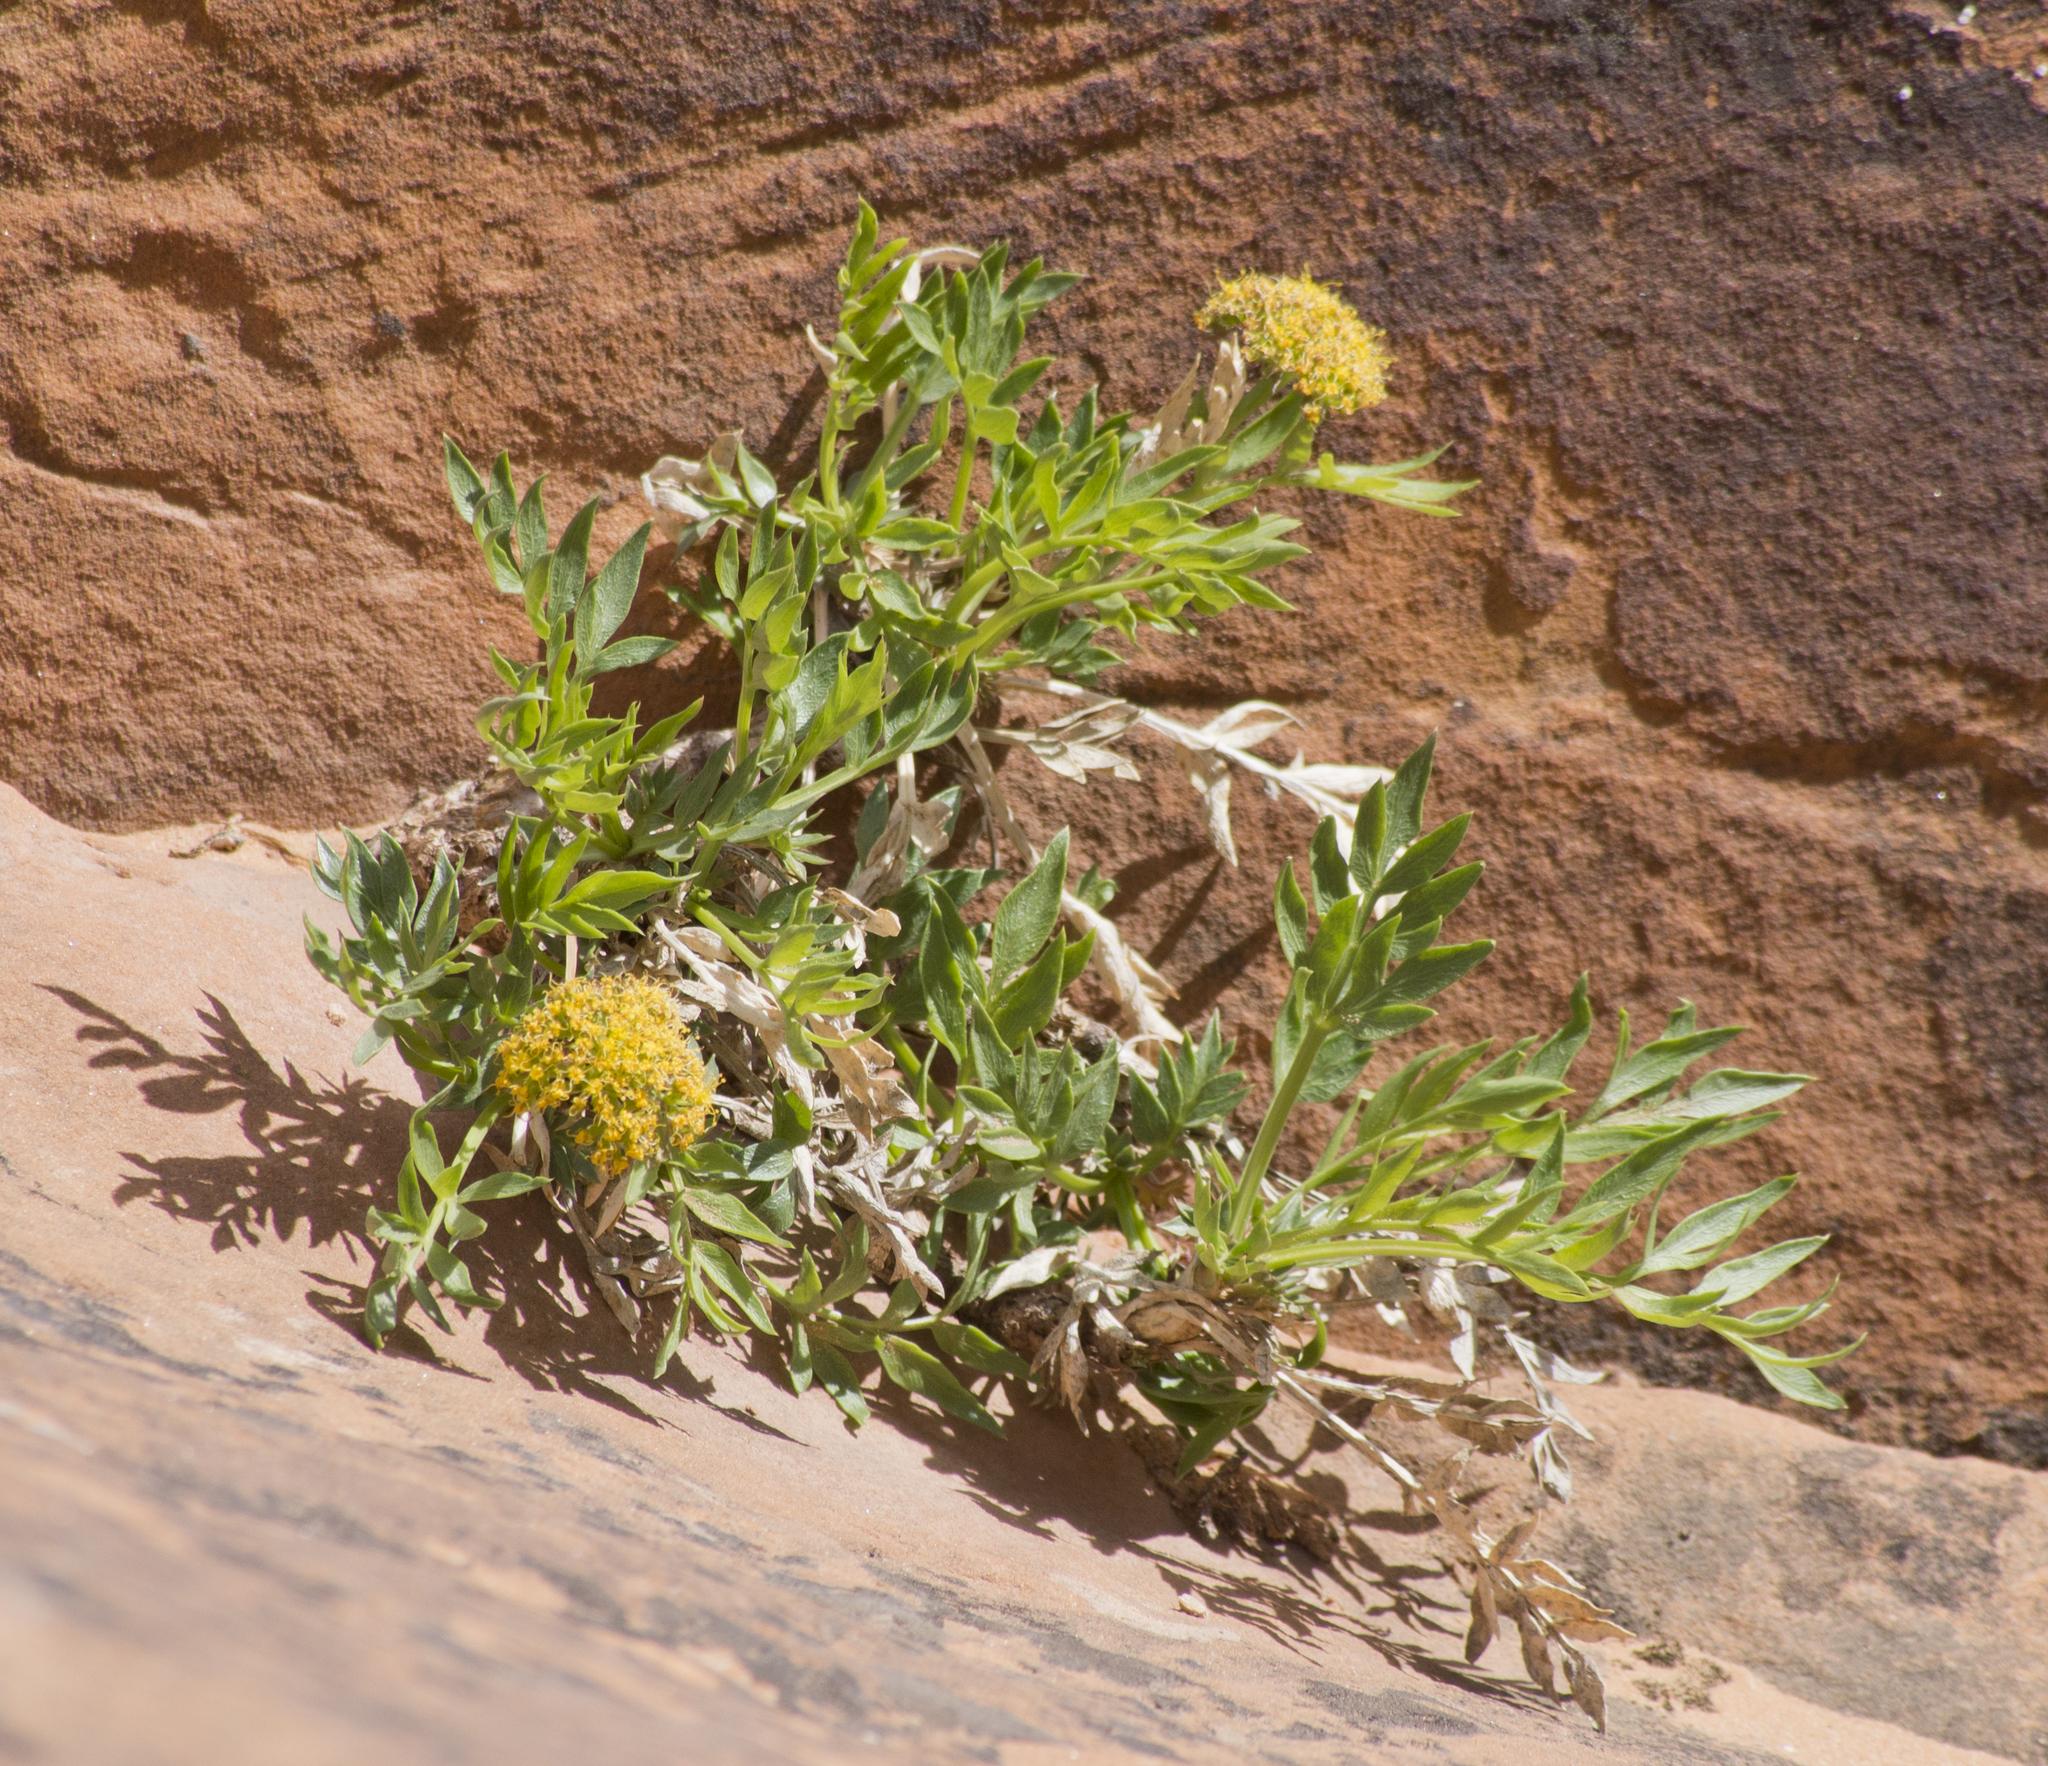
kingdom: Plantae
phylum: Tracheophyta
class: Magnoliopsida
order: Apiales
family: Apiaceae
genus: Lomatium
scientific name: Lomatium latilobum
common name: Canyonlands lomatium
